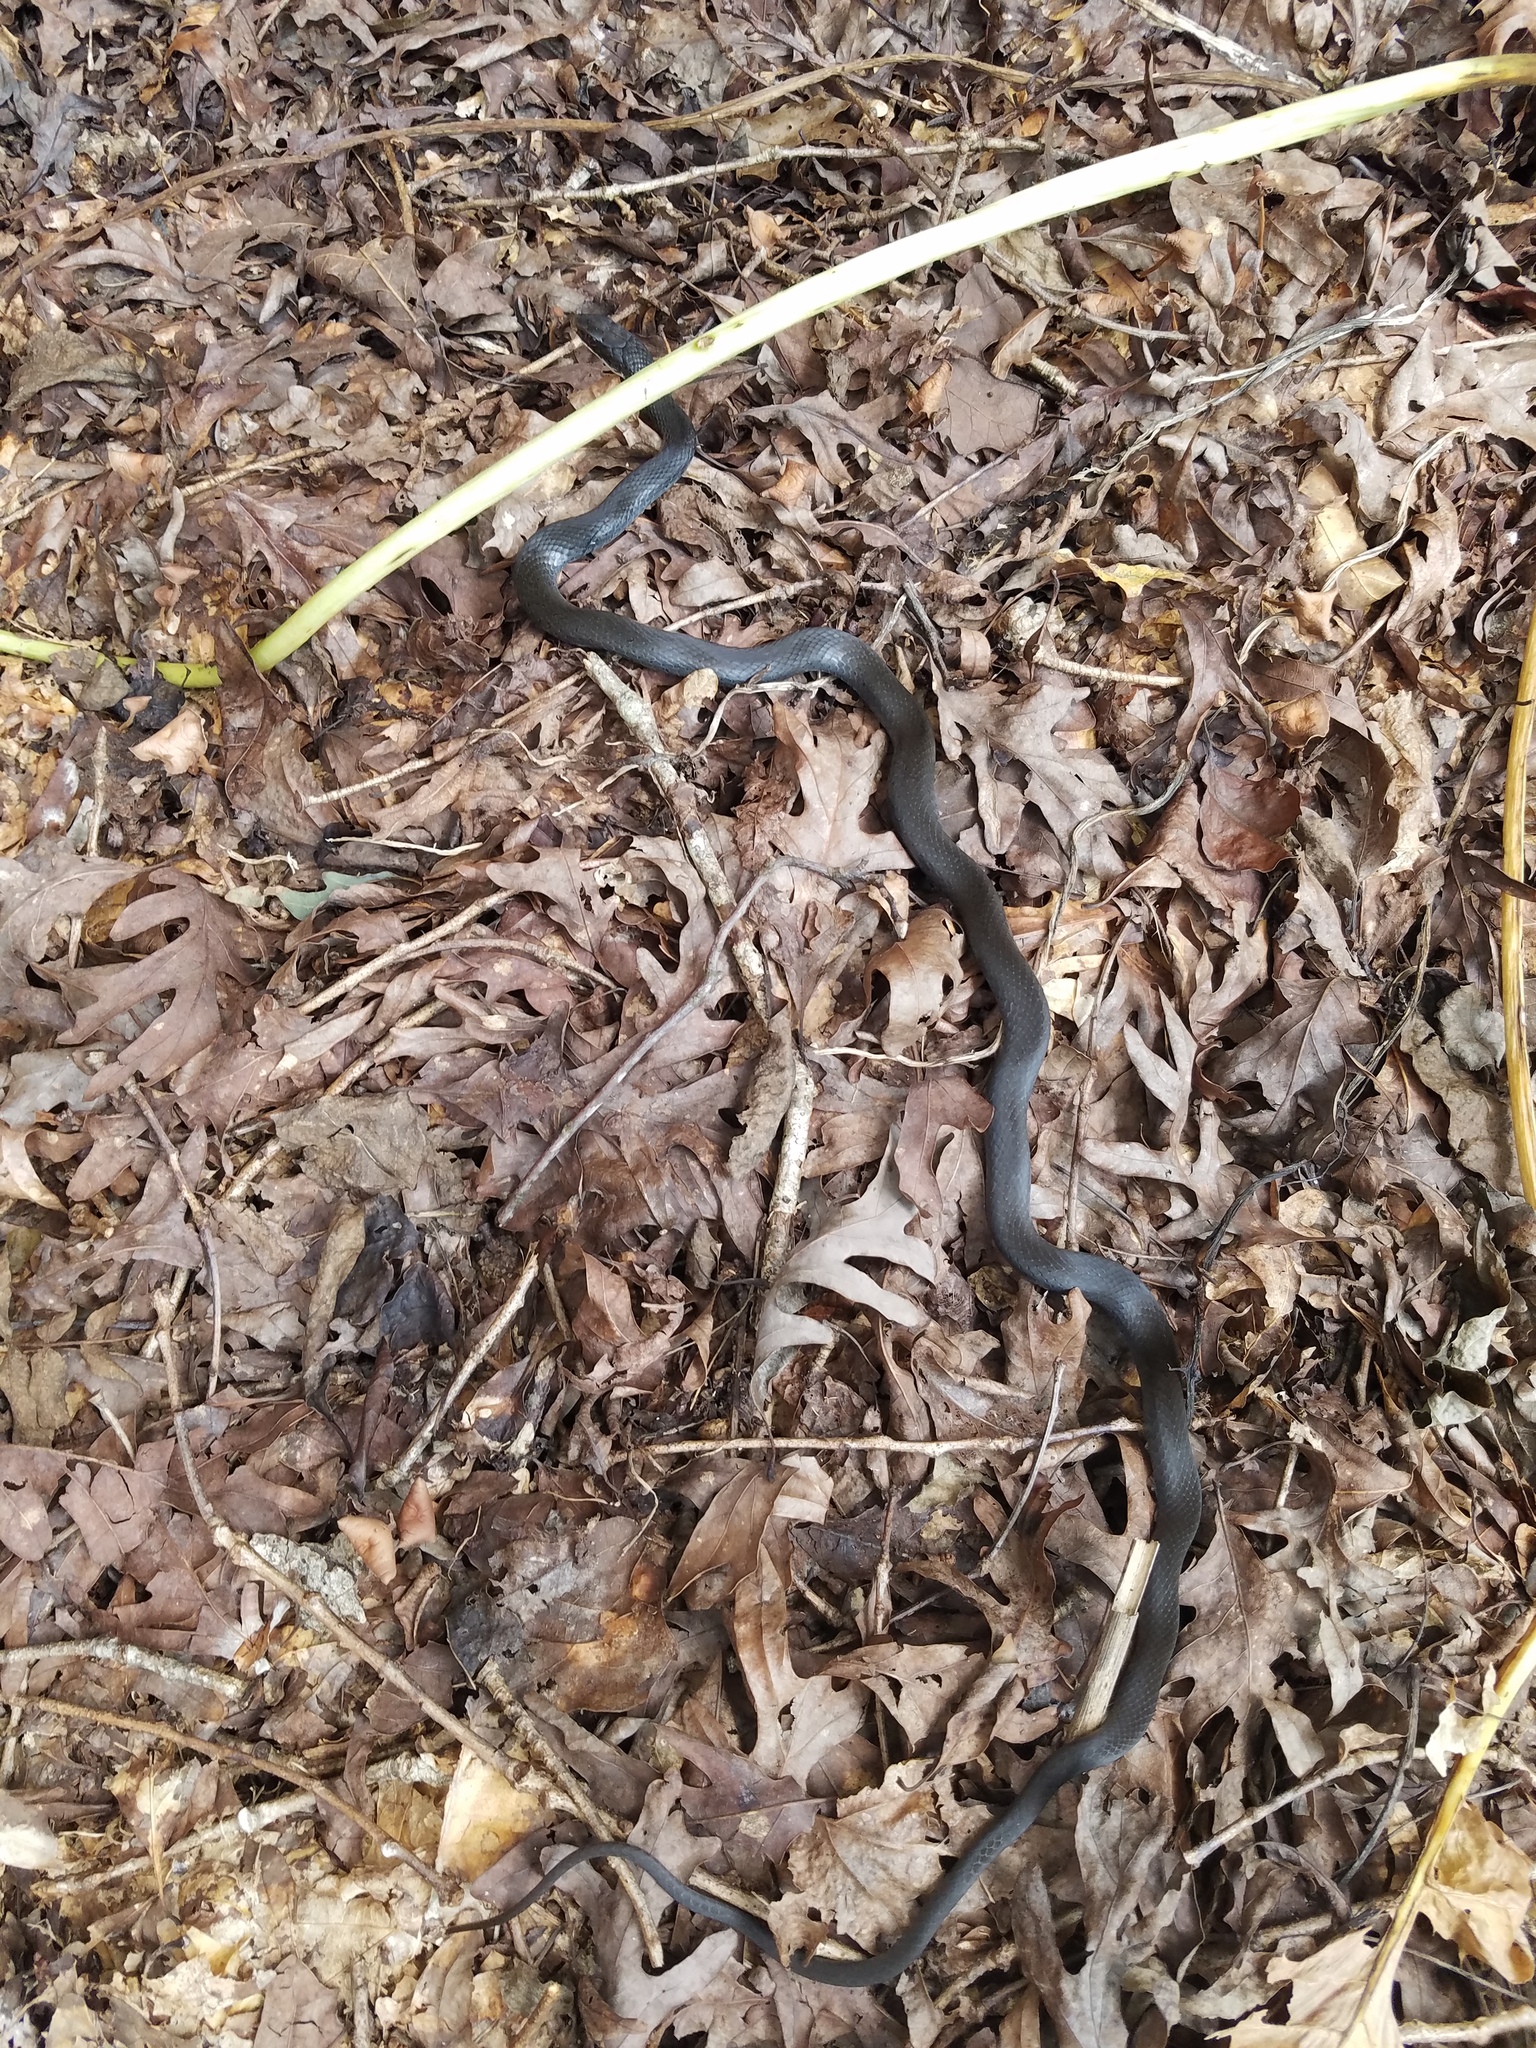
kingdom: Animalia
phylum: Chordata
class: Squamata
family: Colubridae
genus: Coluber
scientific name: Coluber constrictor
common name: Eastern racer
